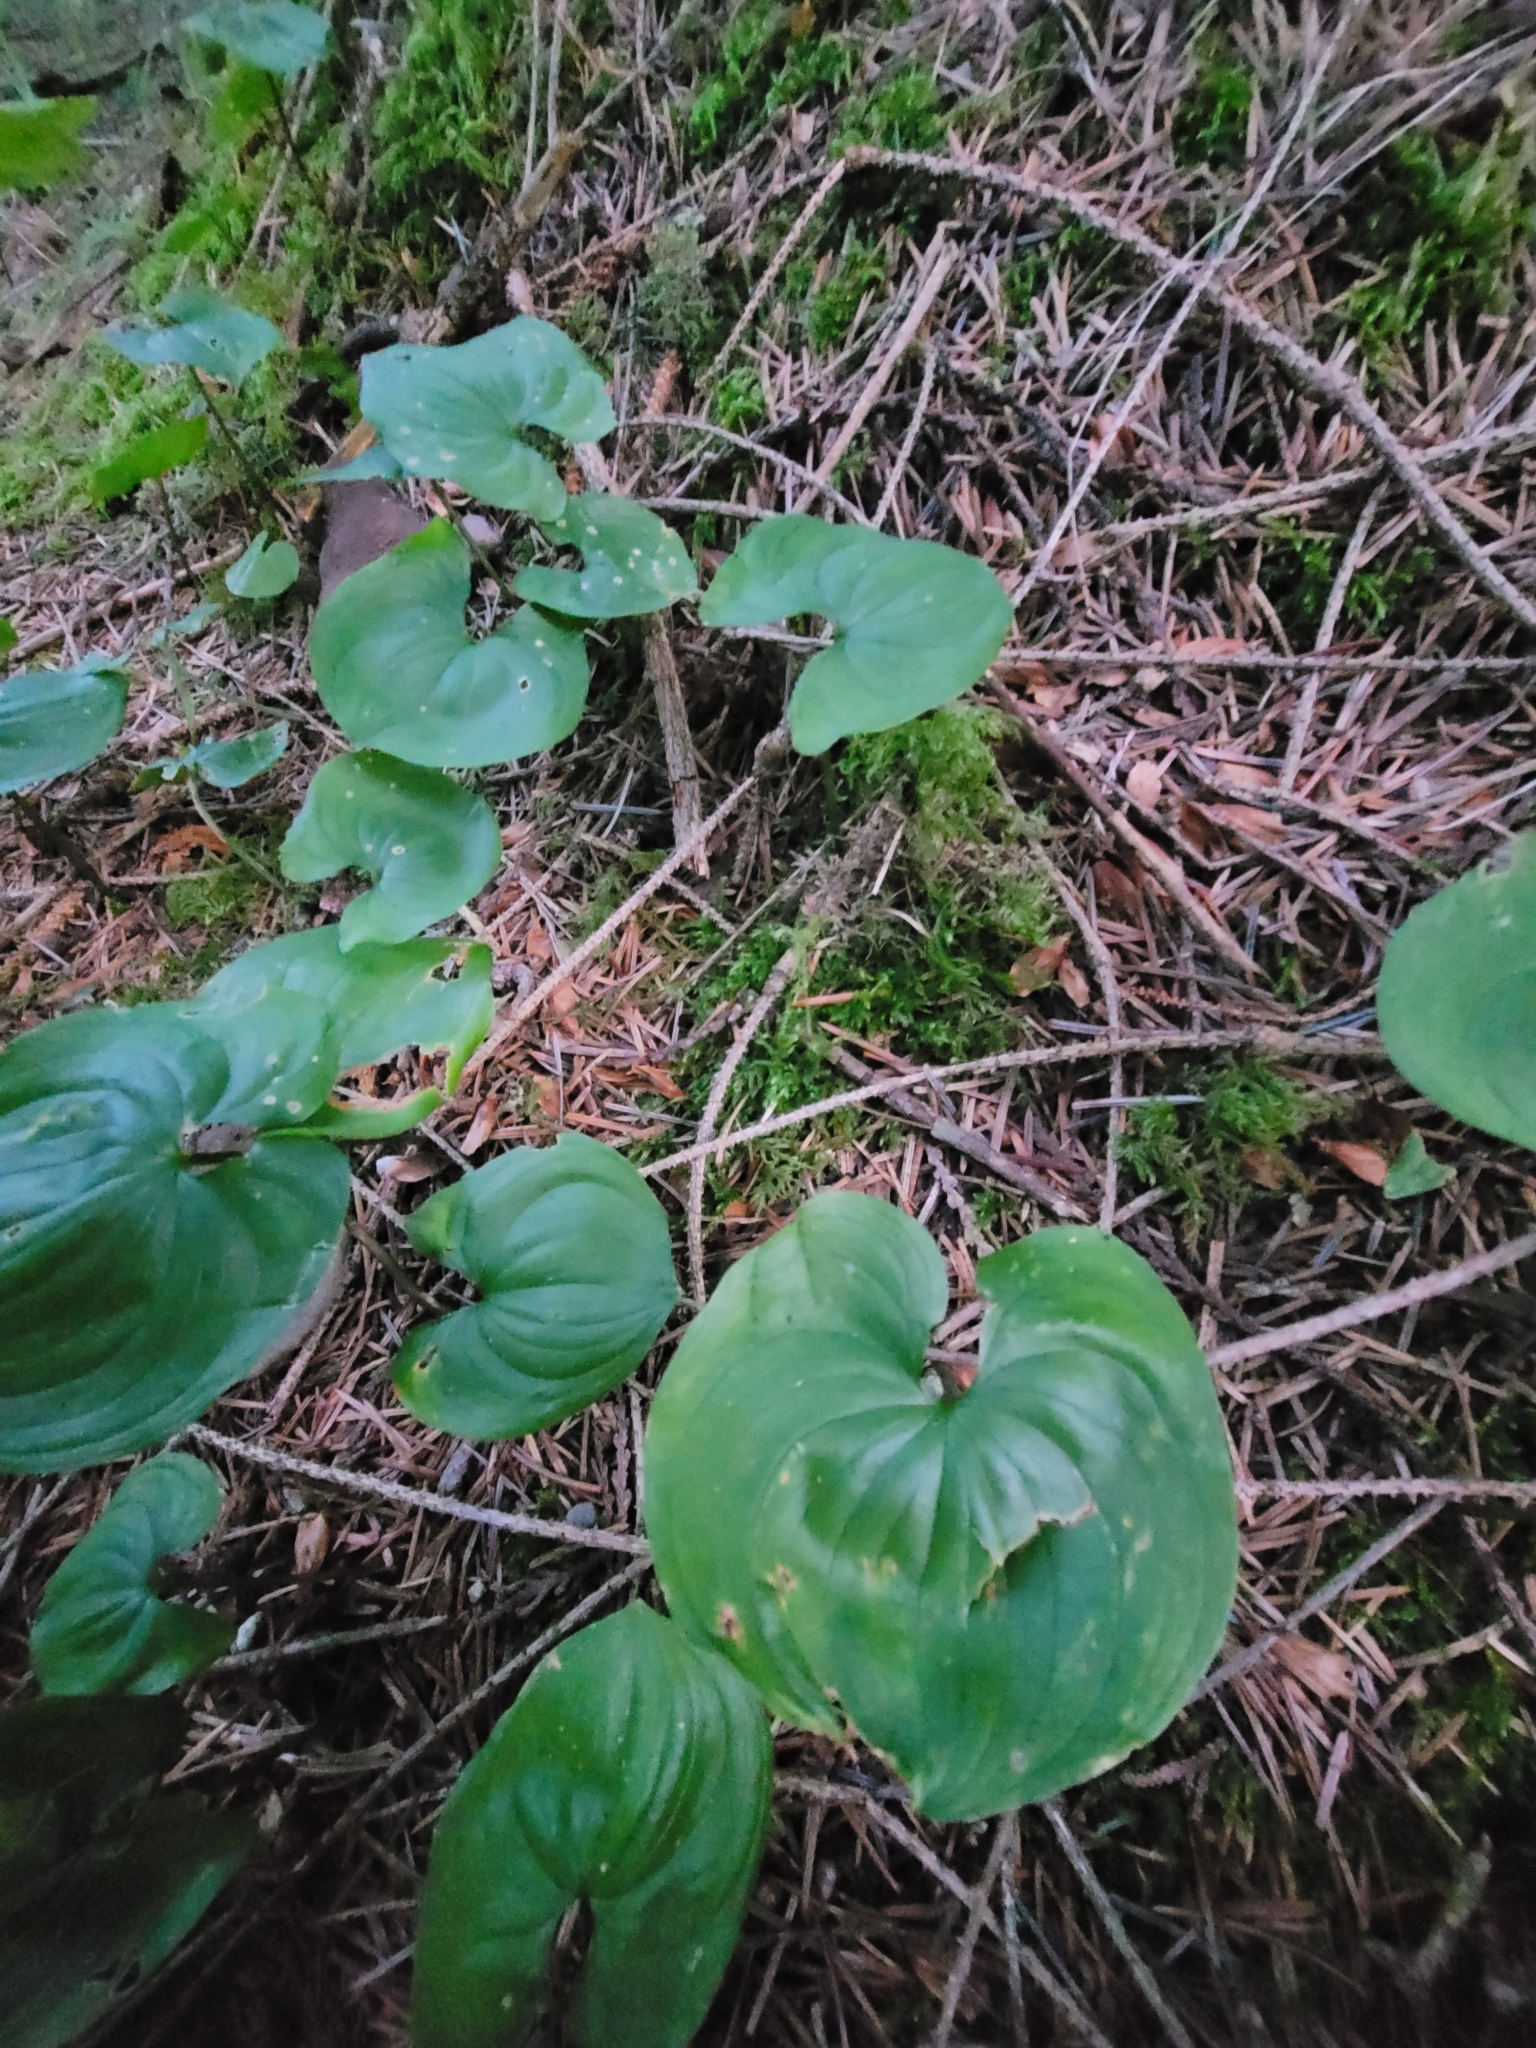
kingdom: Plantae
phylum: Tracheophyta
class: Liliopsida
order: Asparagales
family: Asparagaceae
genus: Maianthemum
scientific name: Maianthemum dilatatum
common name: False lily-of-the-valley
